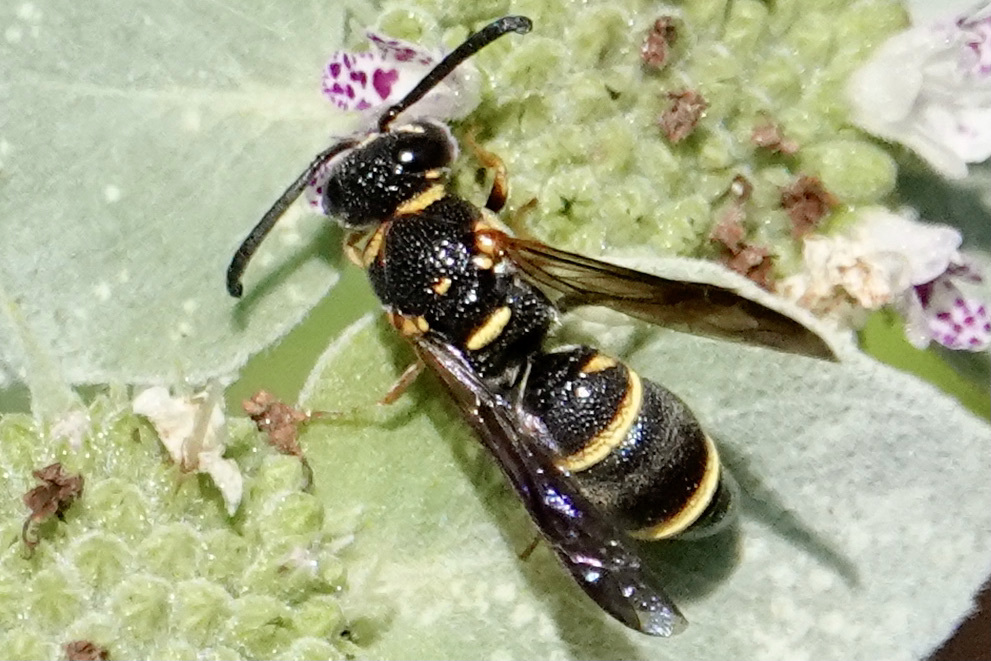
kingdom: Animalia
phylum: Arthropoda
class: Insecta
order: Hymenoptera
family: Eumenidae
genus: Parancistrocerus
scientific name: Parancistrocerus fulvipes
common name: Potter wasp
